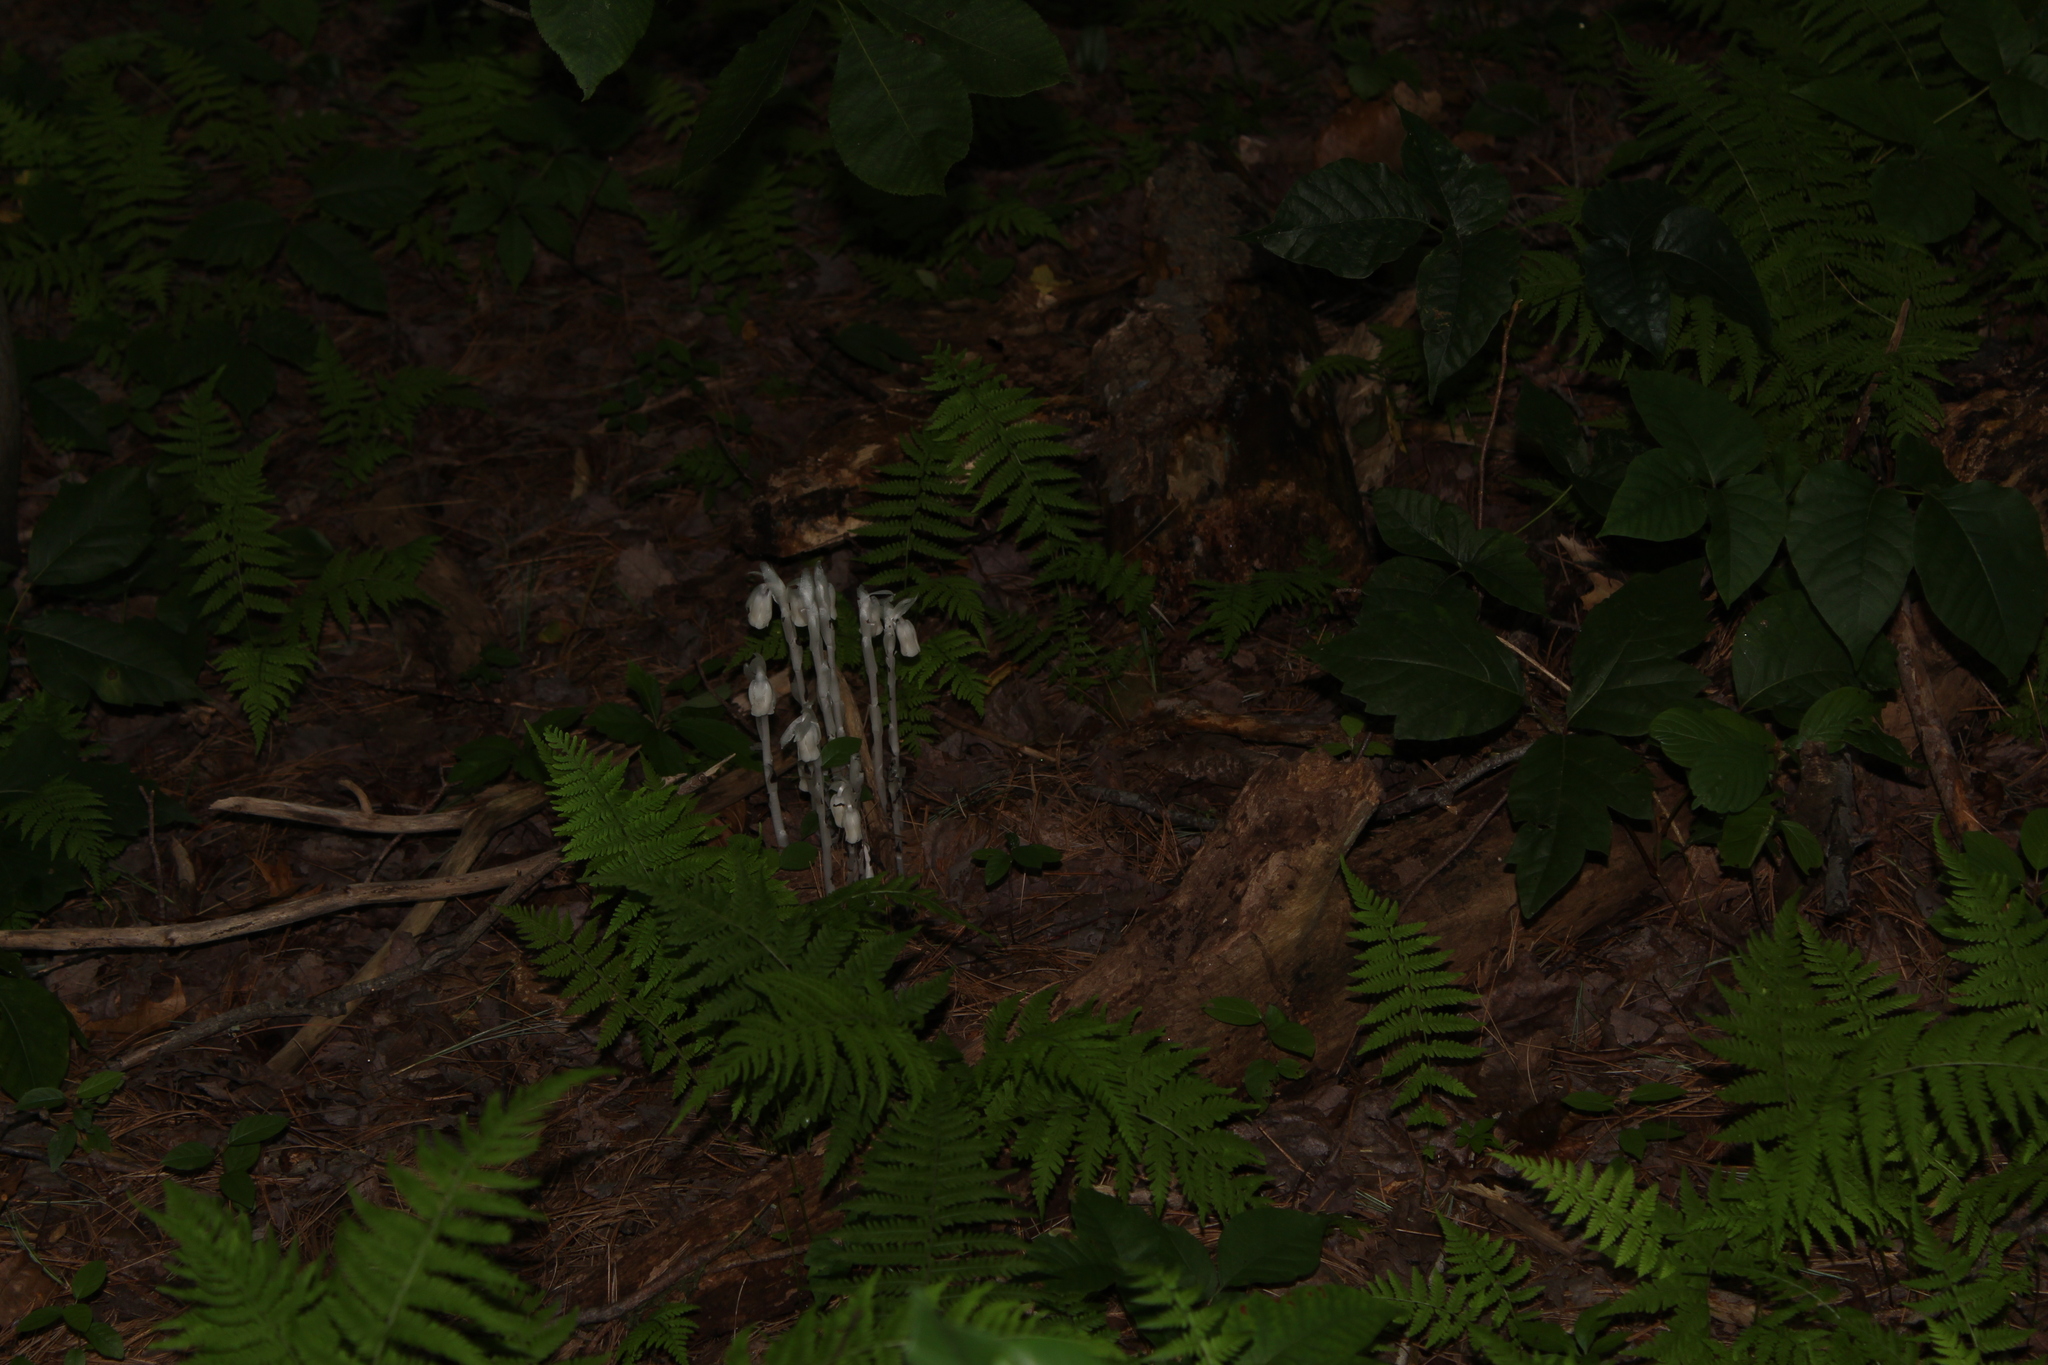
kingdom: Plantae
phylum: Tracheophyta
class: Magnoliopsida
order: Ericales
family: Ericaceae
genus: Monotropa
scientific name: Monotropa uniflora
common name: Convulsion root
